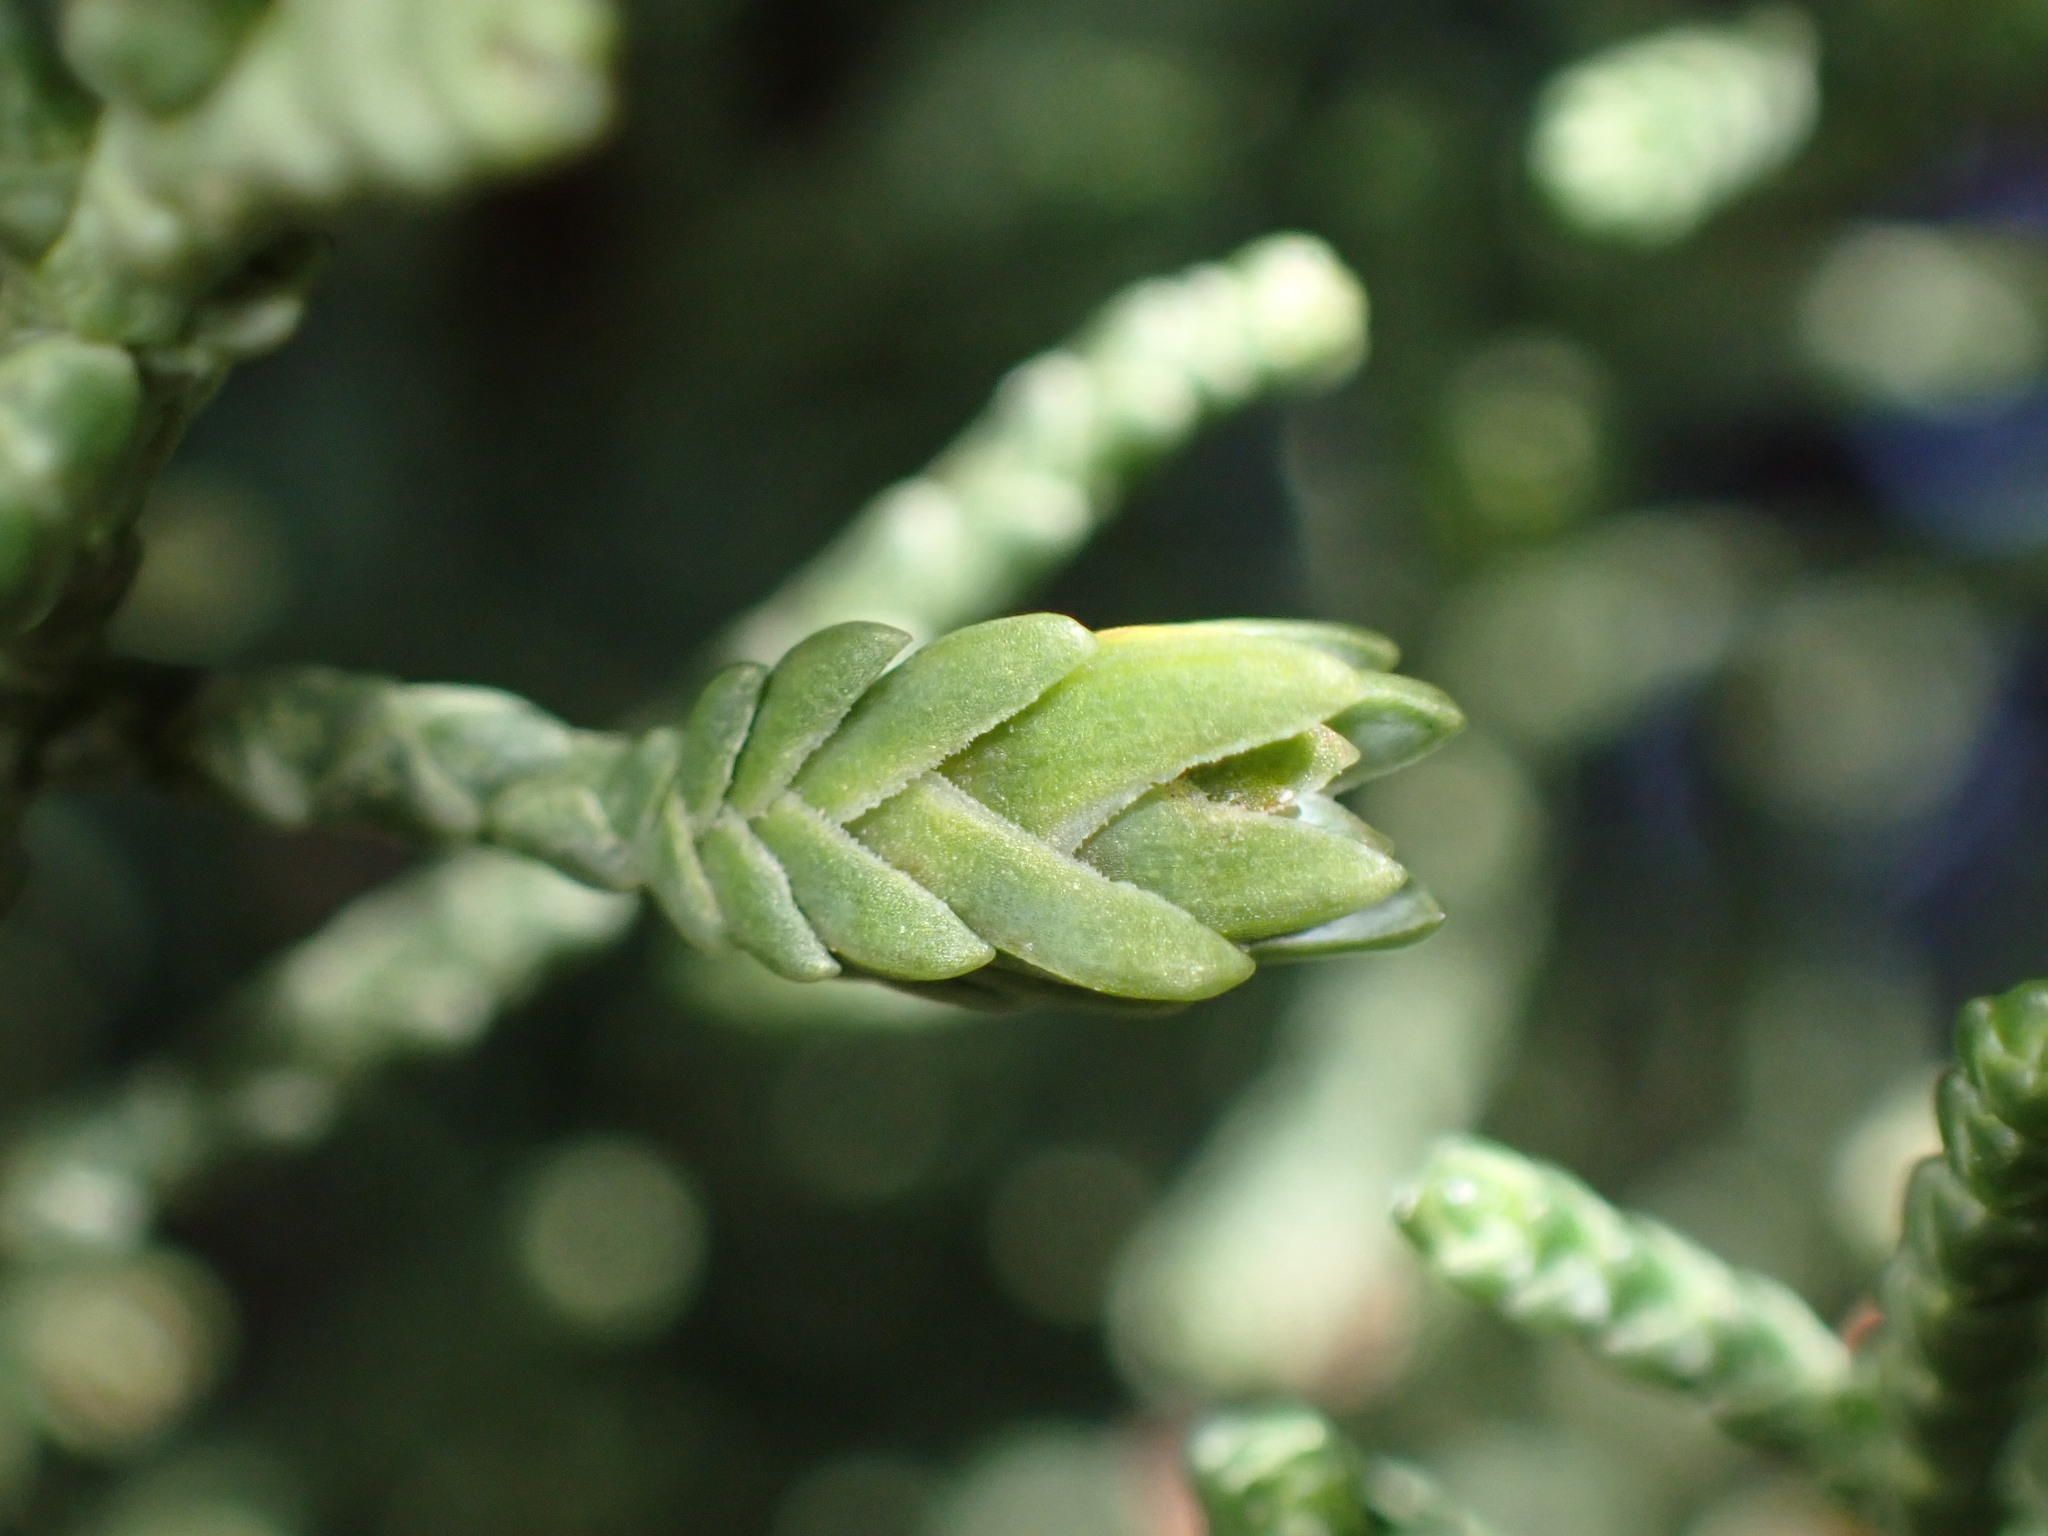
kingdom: Animalia
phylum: Arthropoda
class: Insecta
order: Diptera
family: Cecidomyiidae
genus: Oligotrophus
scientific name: Oligotrophus cupressi
